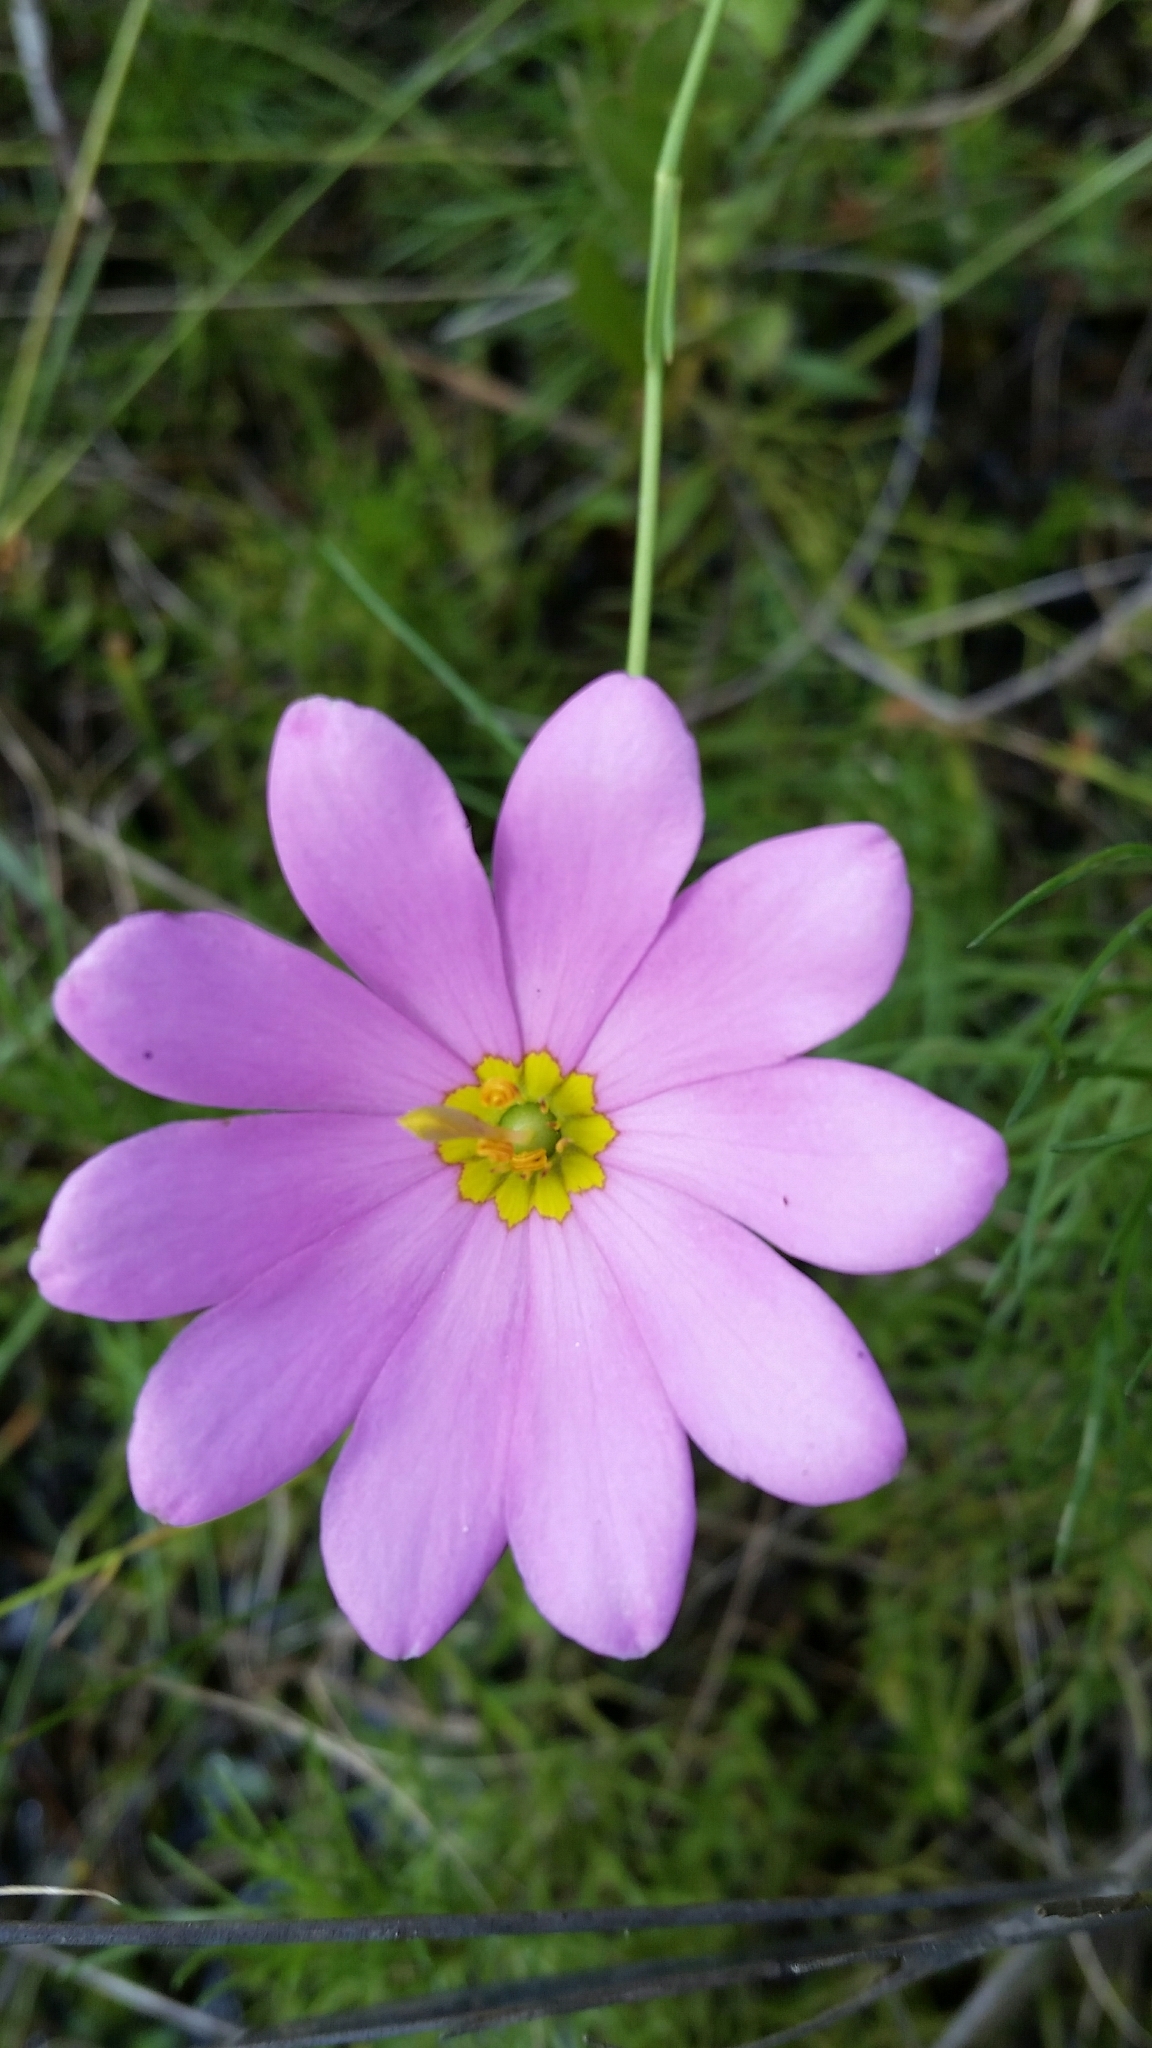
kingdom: Plantae
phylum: Tracheophyta
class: Magnoliopsida
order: Gentianales
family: Gentianaceae
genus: Sabatia
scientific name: Sabatia decandra
